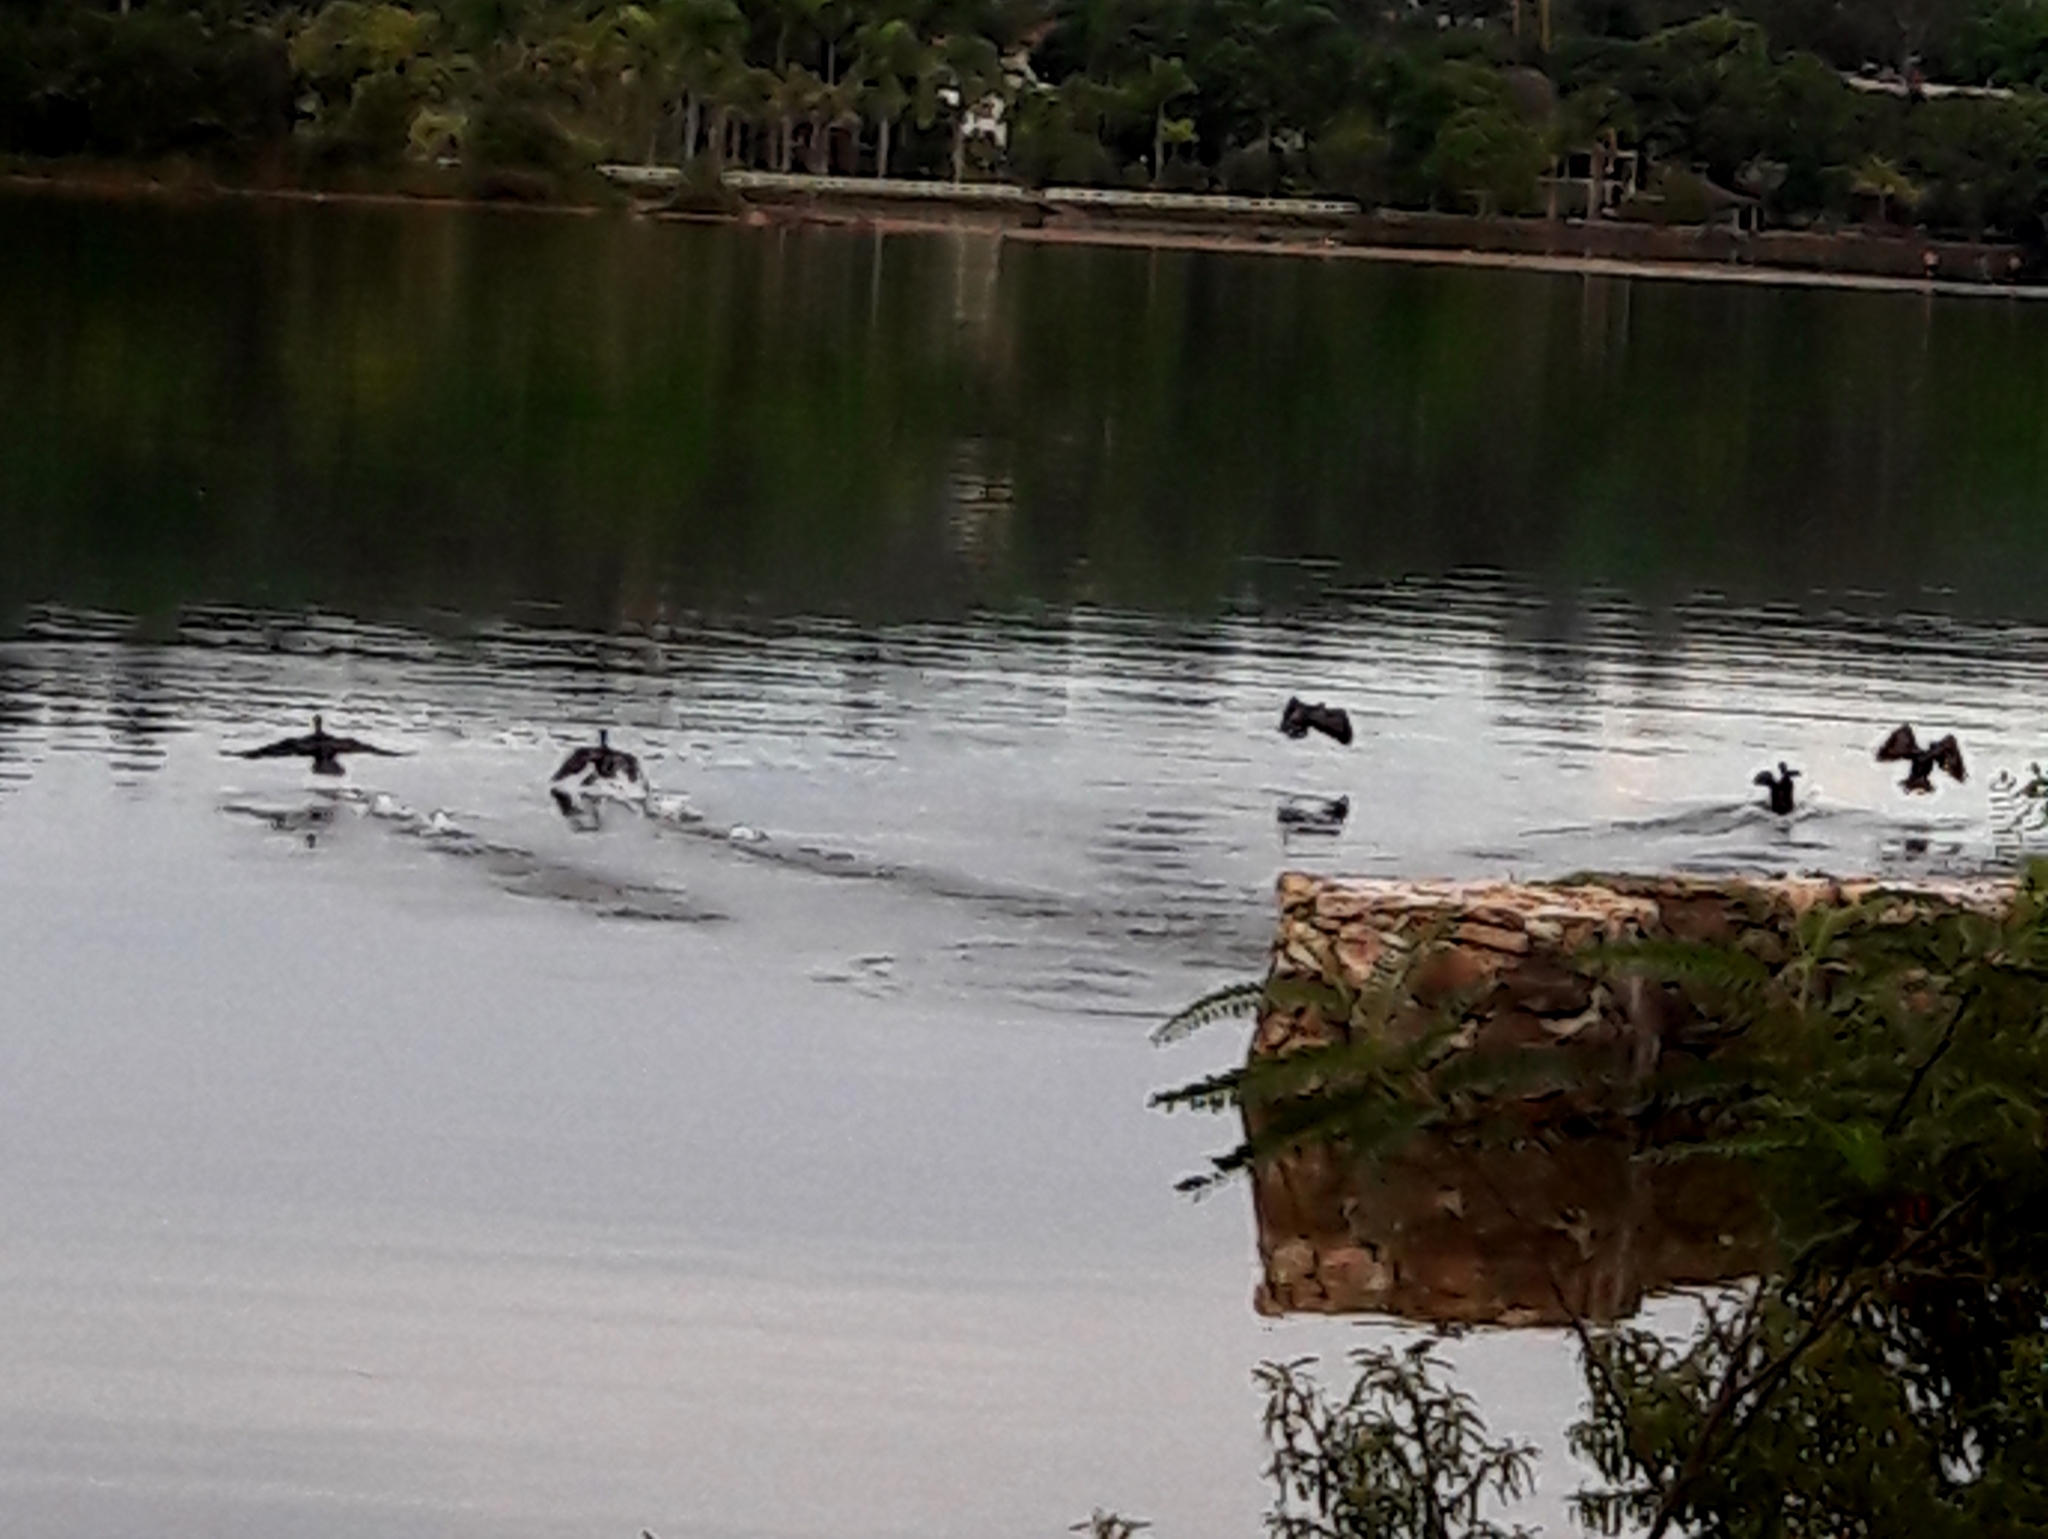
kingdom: Animalia
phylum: Chordata
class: Aves
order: Suliformes
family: Phalacrocoracidae
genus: Phalacrocorax
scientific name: Phalacrocorax brasilianus
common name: Neotropic cormorant
